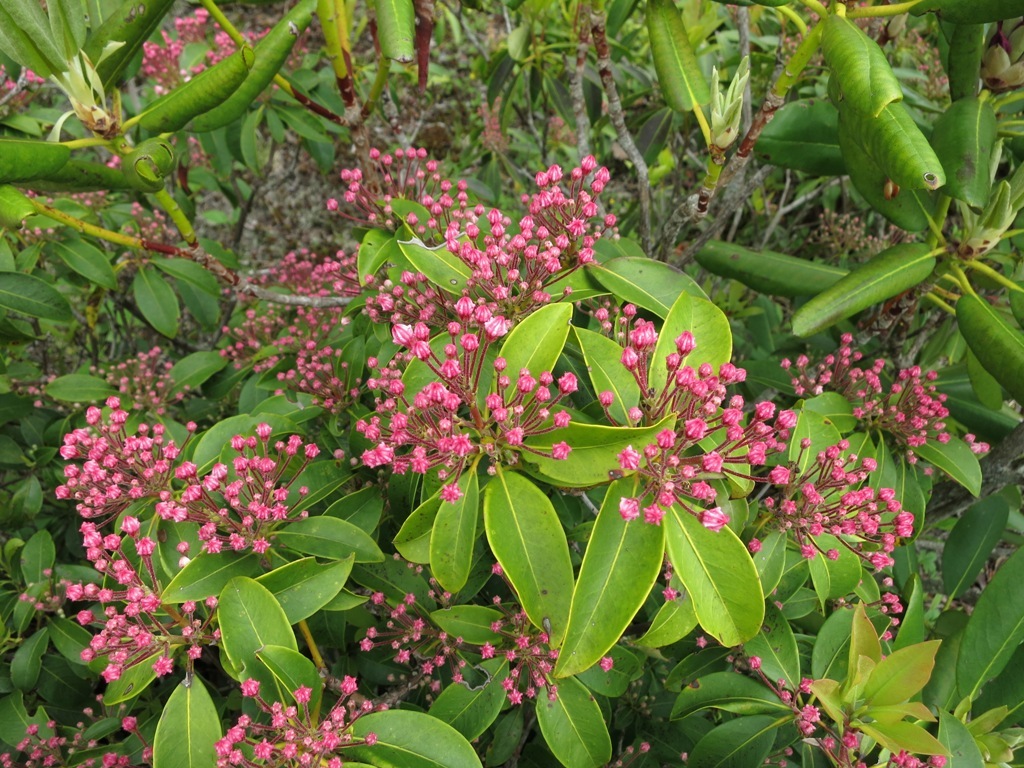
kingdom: Plantae
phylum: Tracheophyta
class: Magnoliopsida
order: Ericales
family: Ericaceae
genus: Kalmia
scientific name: Kalmia latifolia
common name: Mountain-laurel
